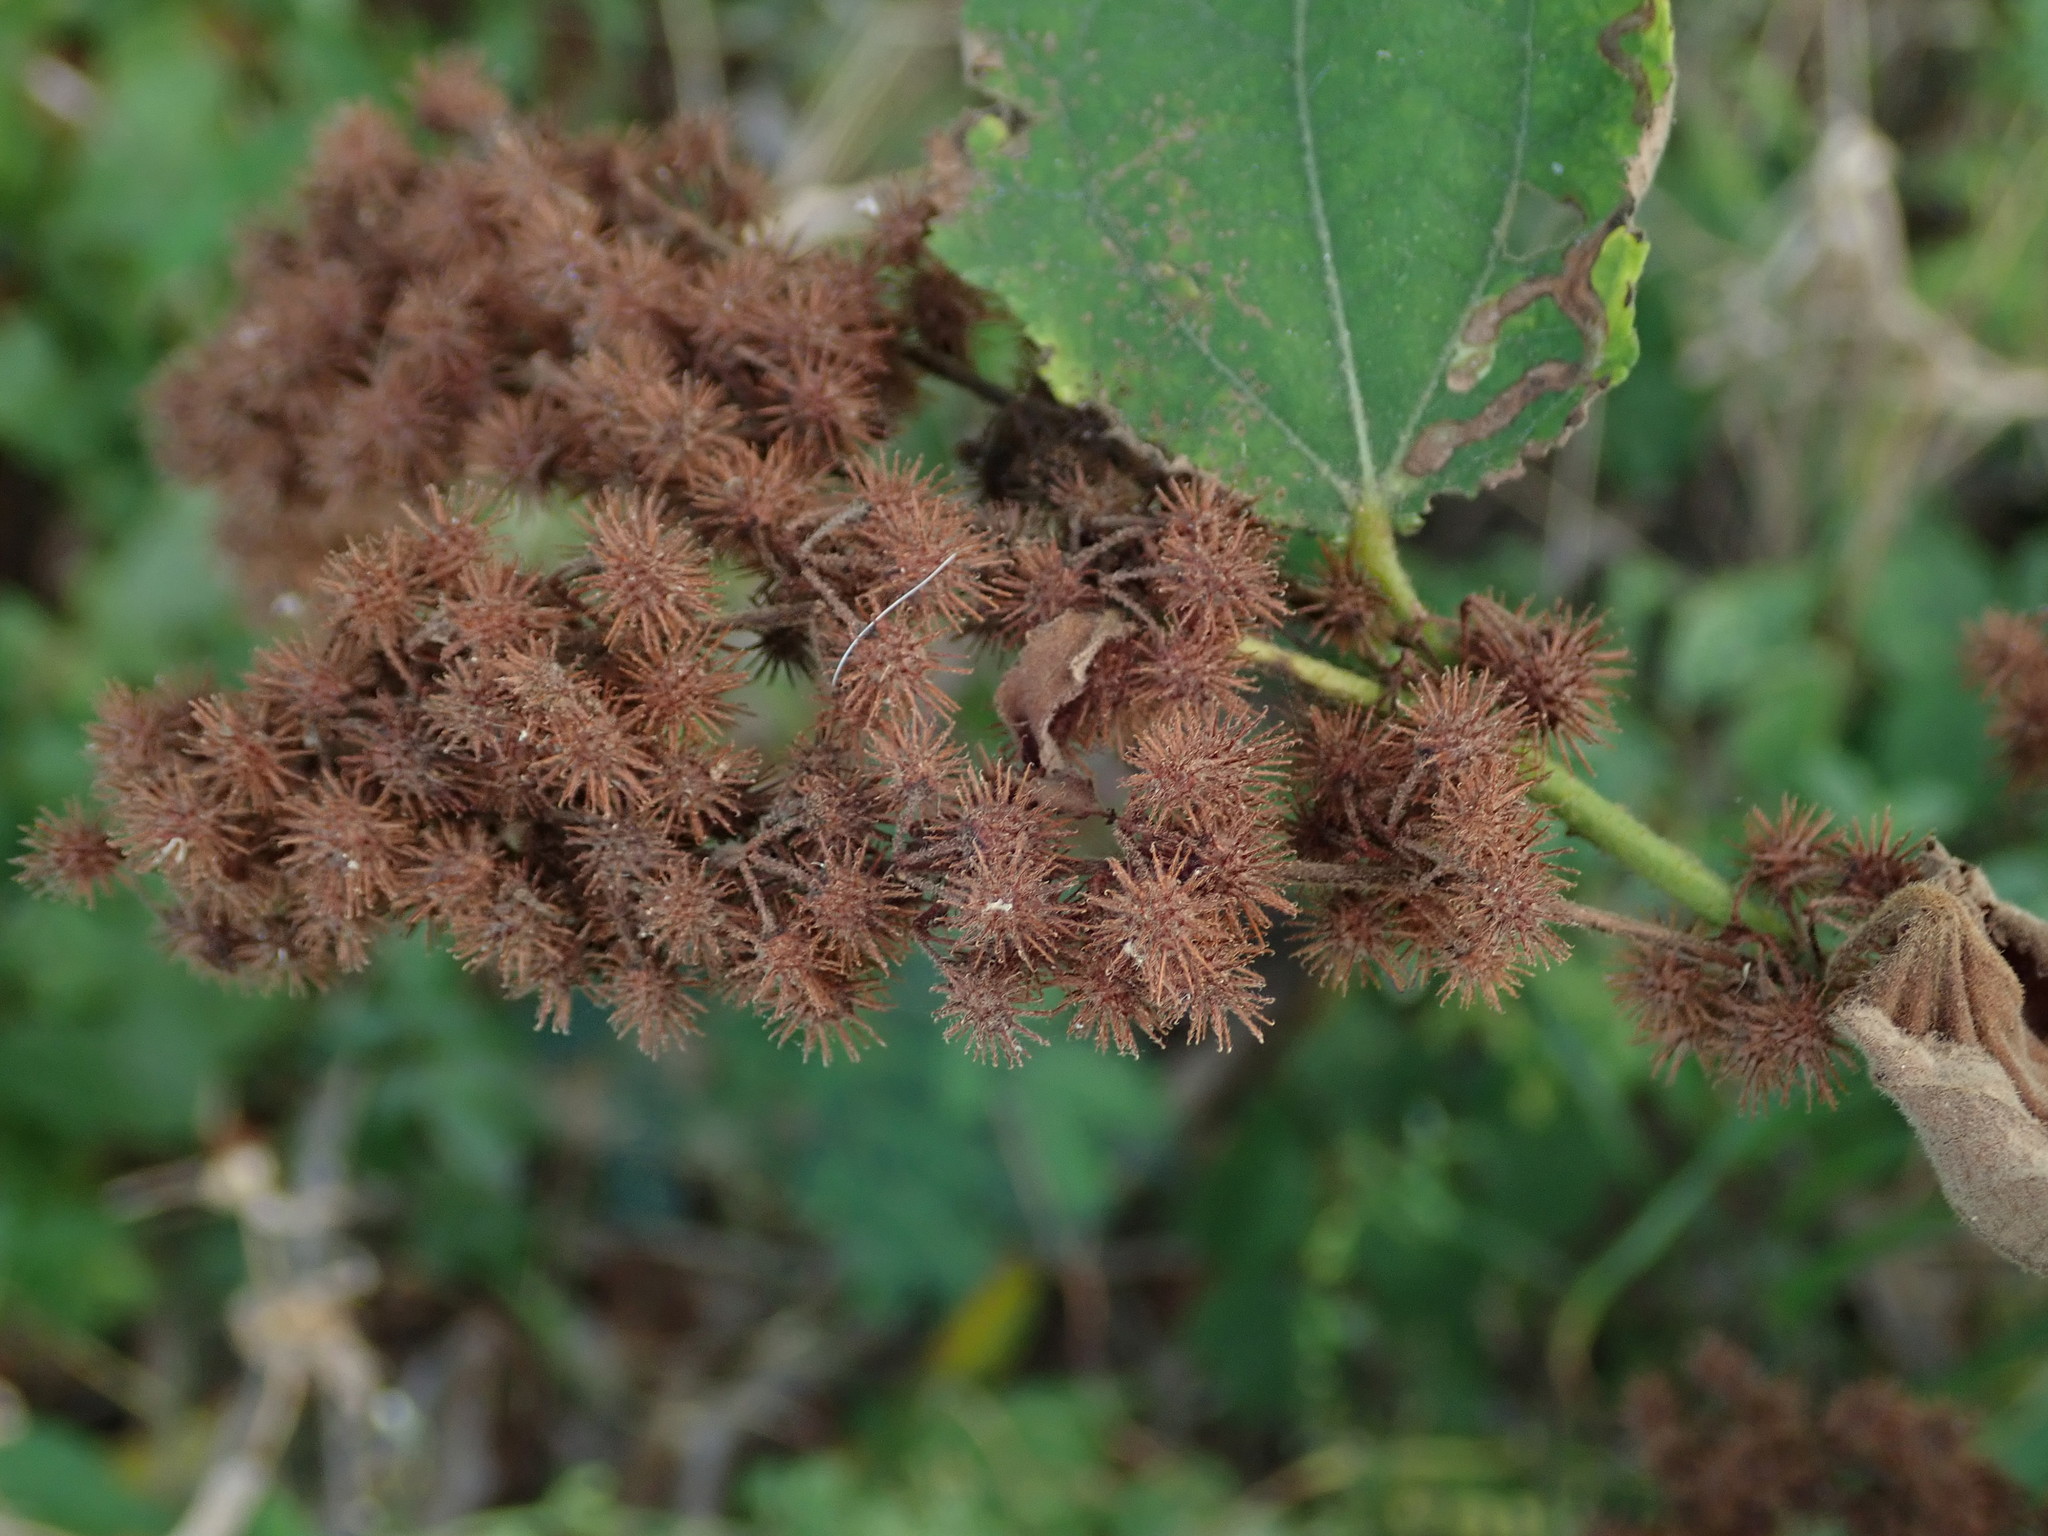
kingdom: Plantae
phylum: Tracheophyta
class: Magnoliopsida
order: Malvales
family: Malvaceae
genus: Triumfetta
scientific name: Triumfetta semitriloba
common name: Sacramento burbark
